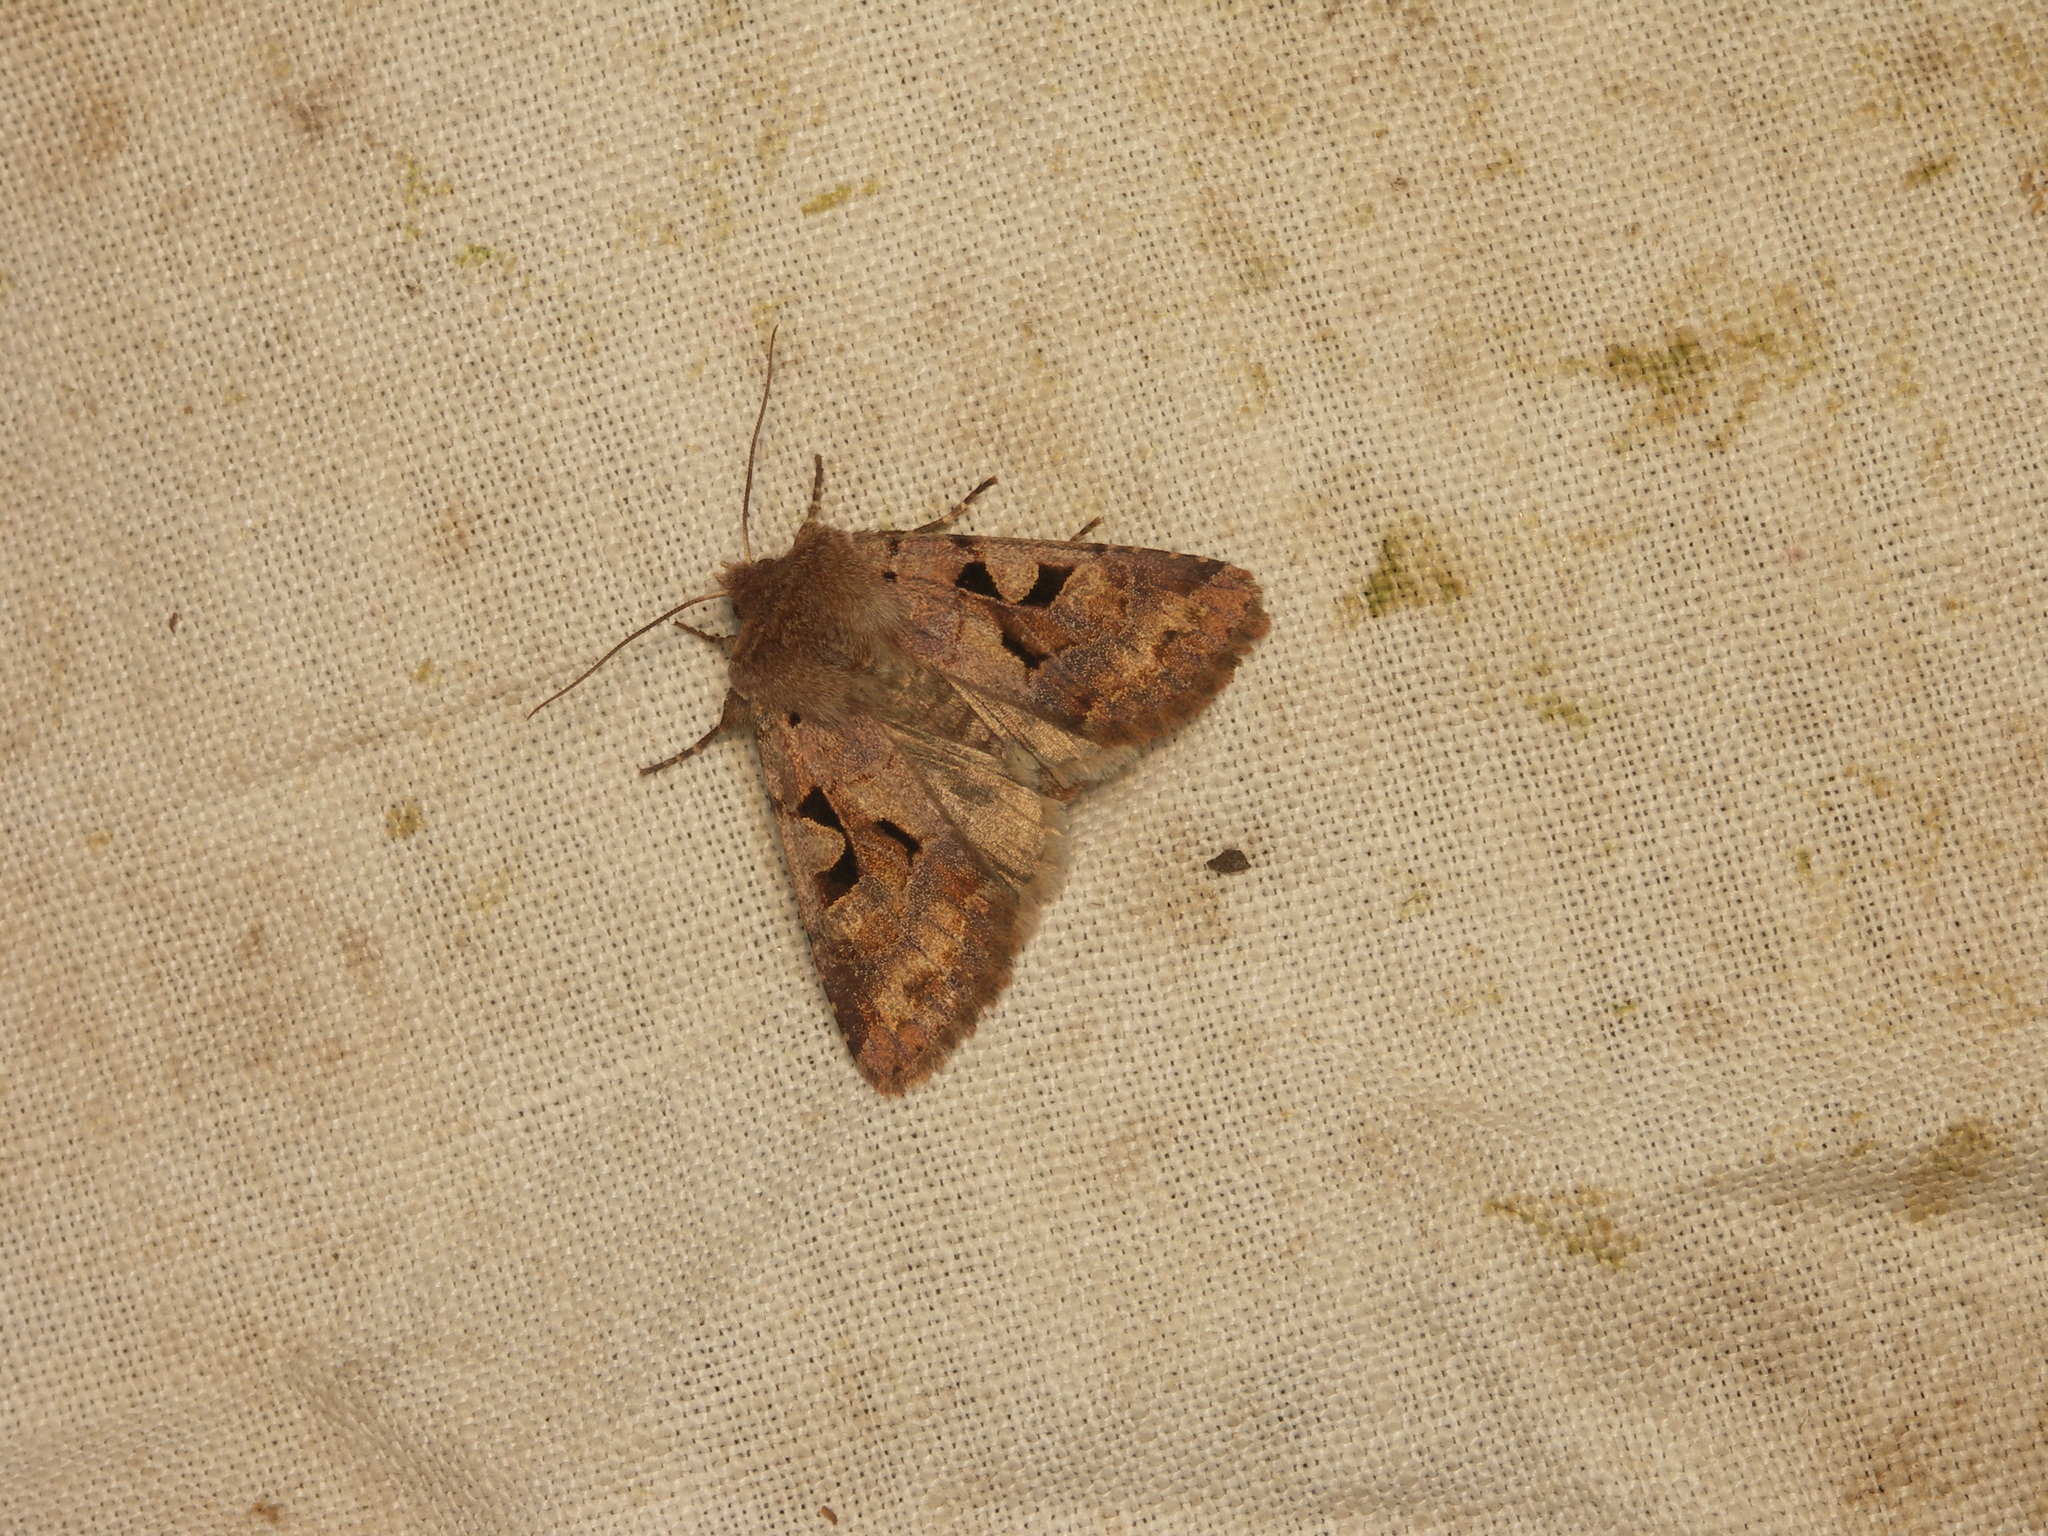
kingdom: Animalia
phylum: Arthropoda
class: Insecta
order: Lepidoptera
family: Noctuidae
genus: Orthosia
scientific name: Orthosia gothica
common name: Hebrew character
